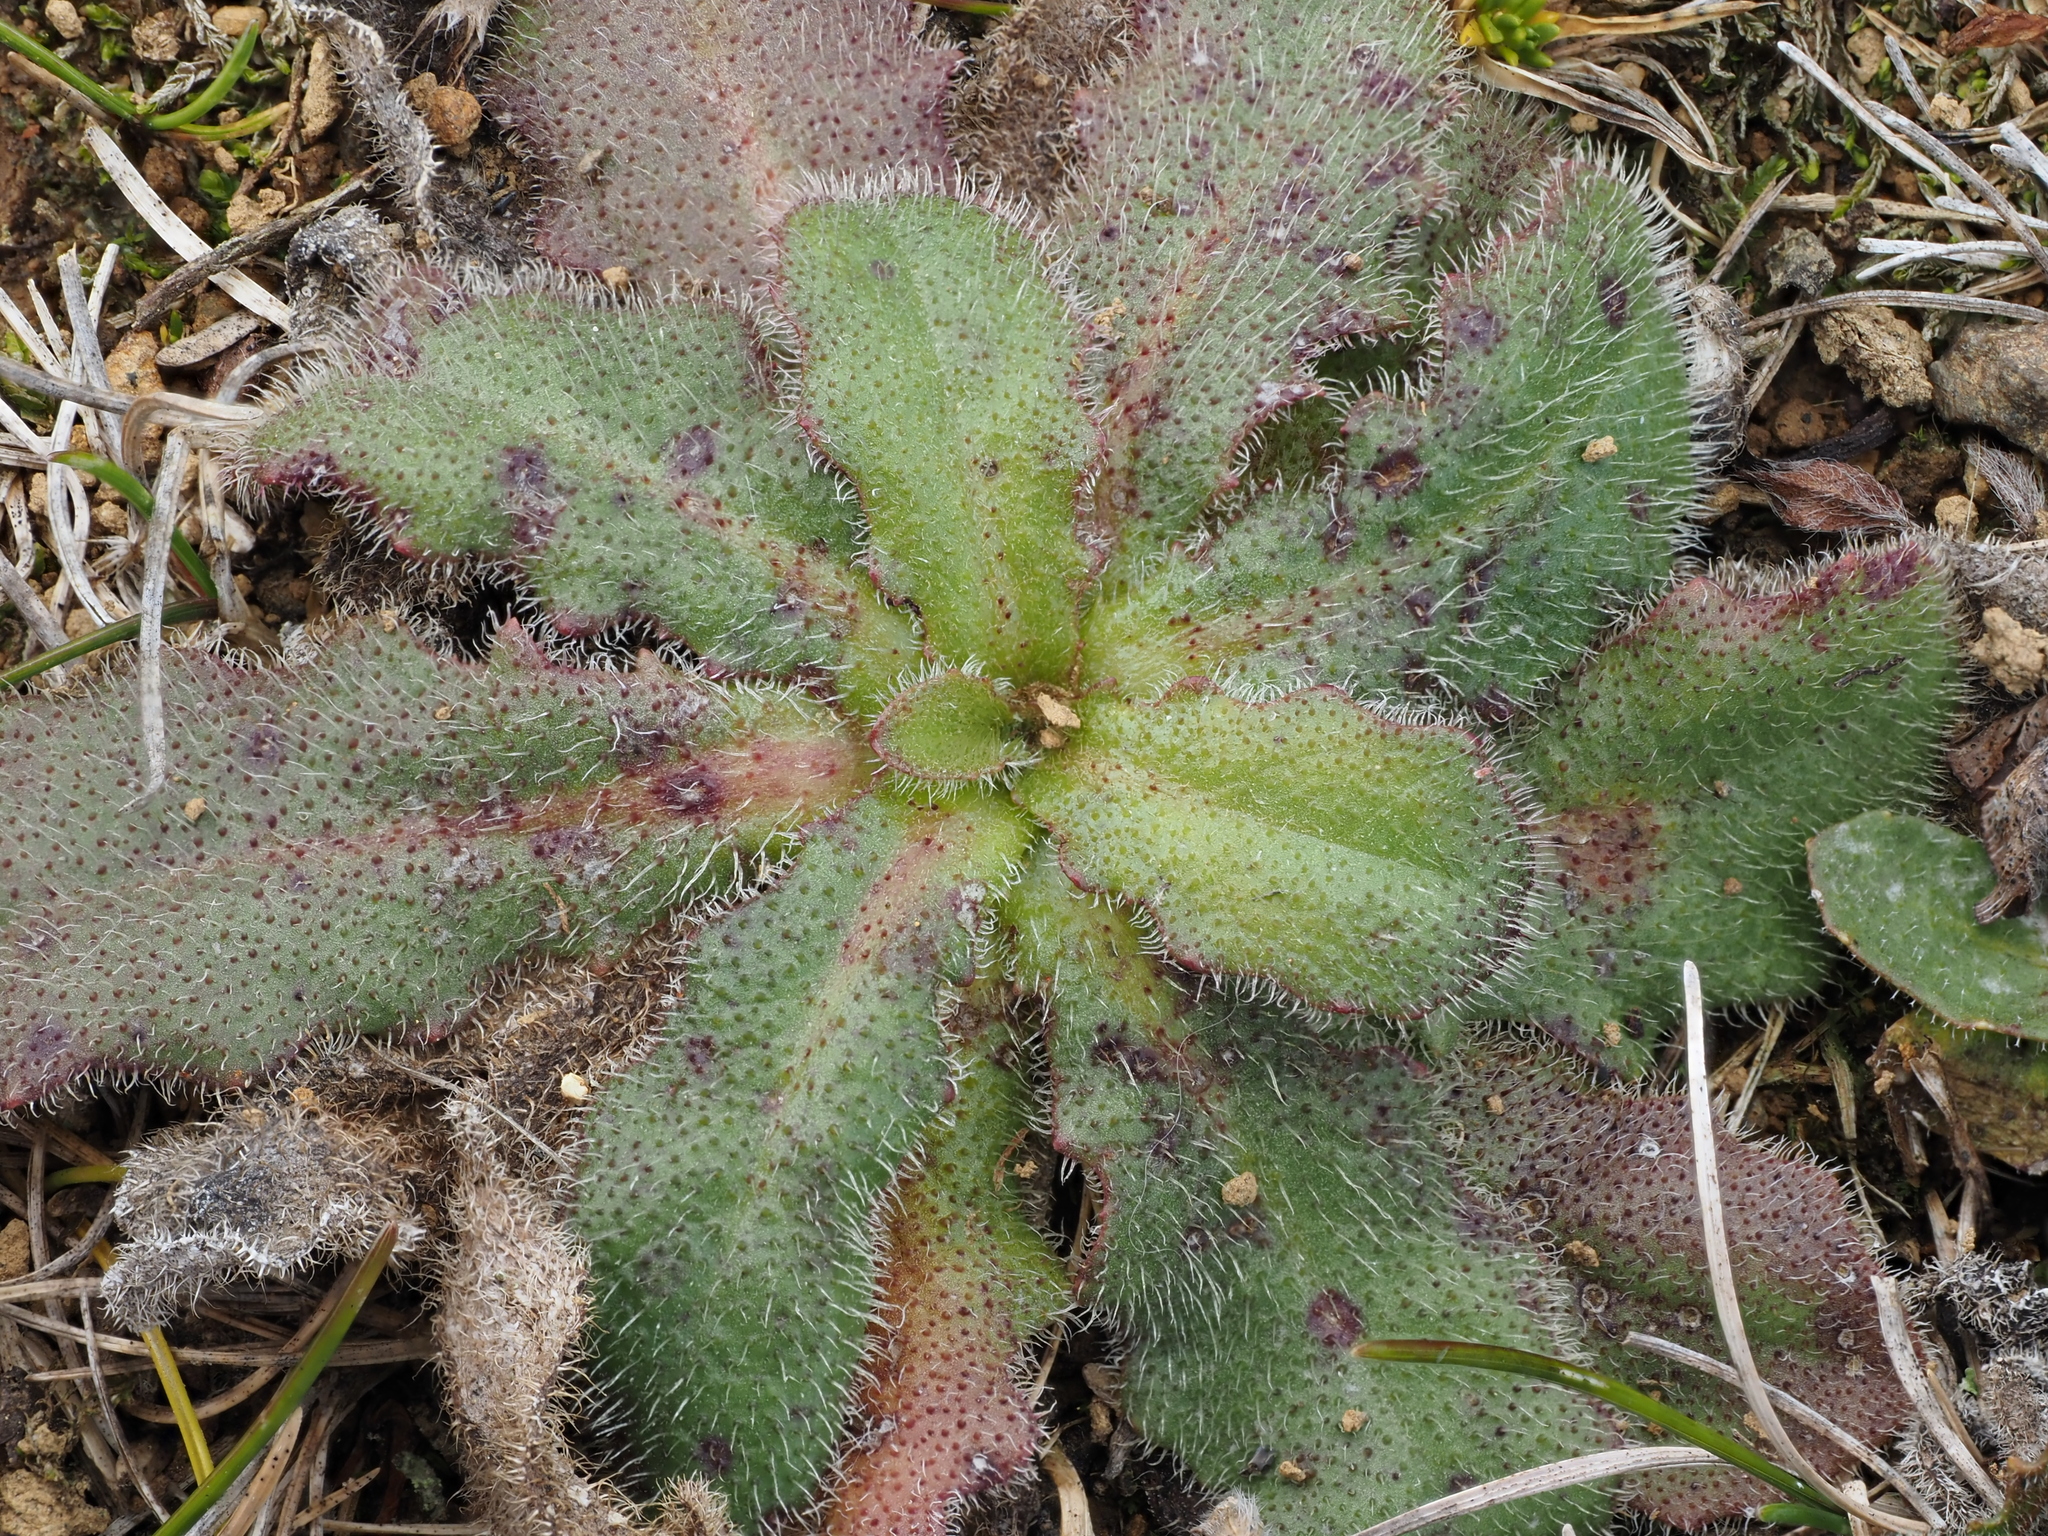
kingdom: Plantae
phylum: Tracheophyta
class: Magnoliopsida
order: Asterales
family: Asteraceae
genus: Hypochaeris
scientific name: Hypochaeris radicata
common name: Flatweed
